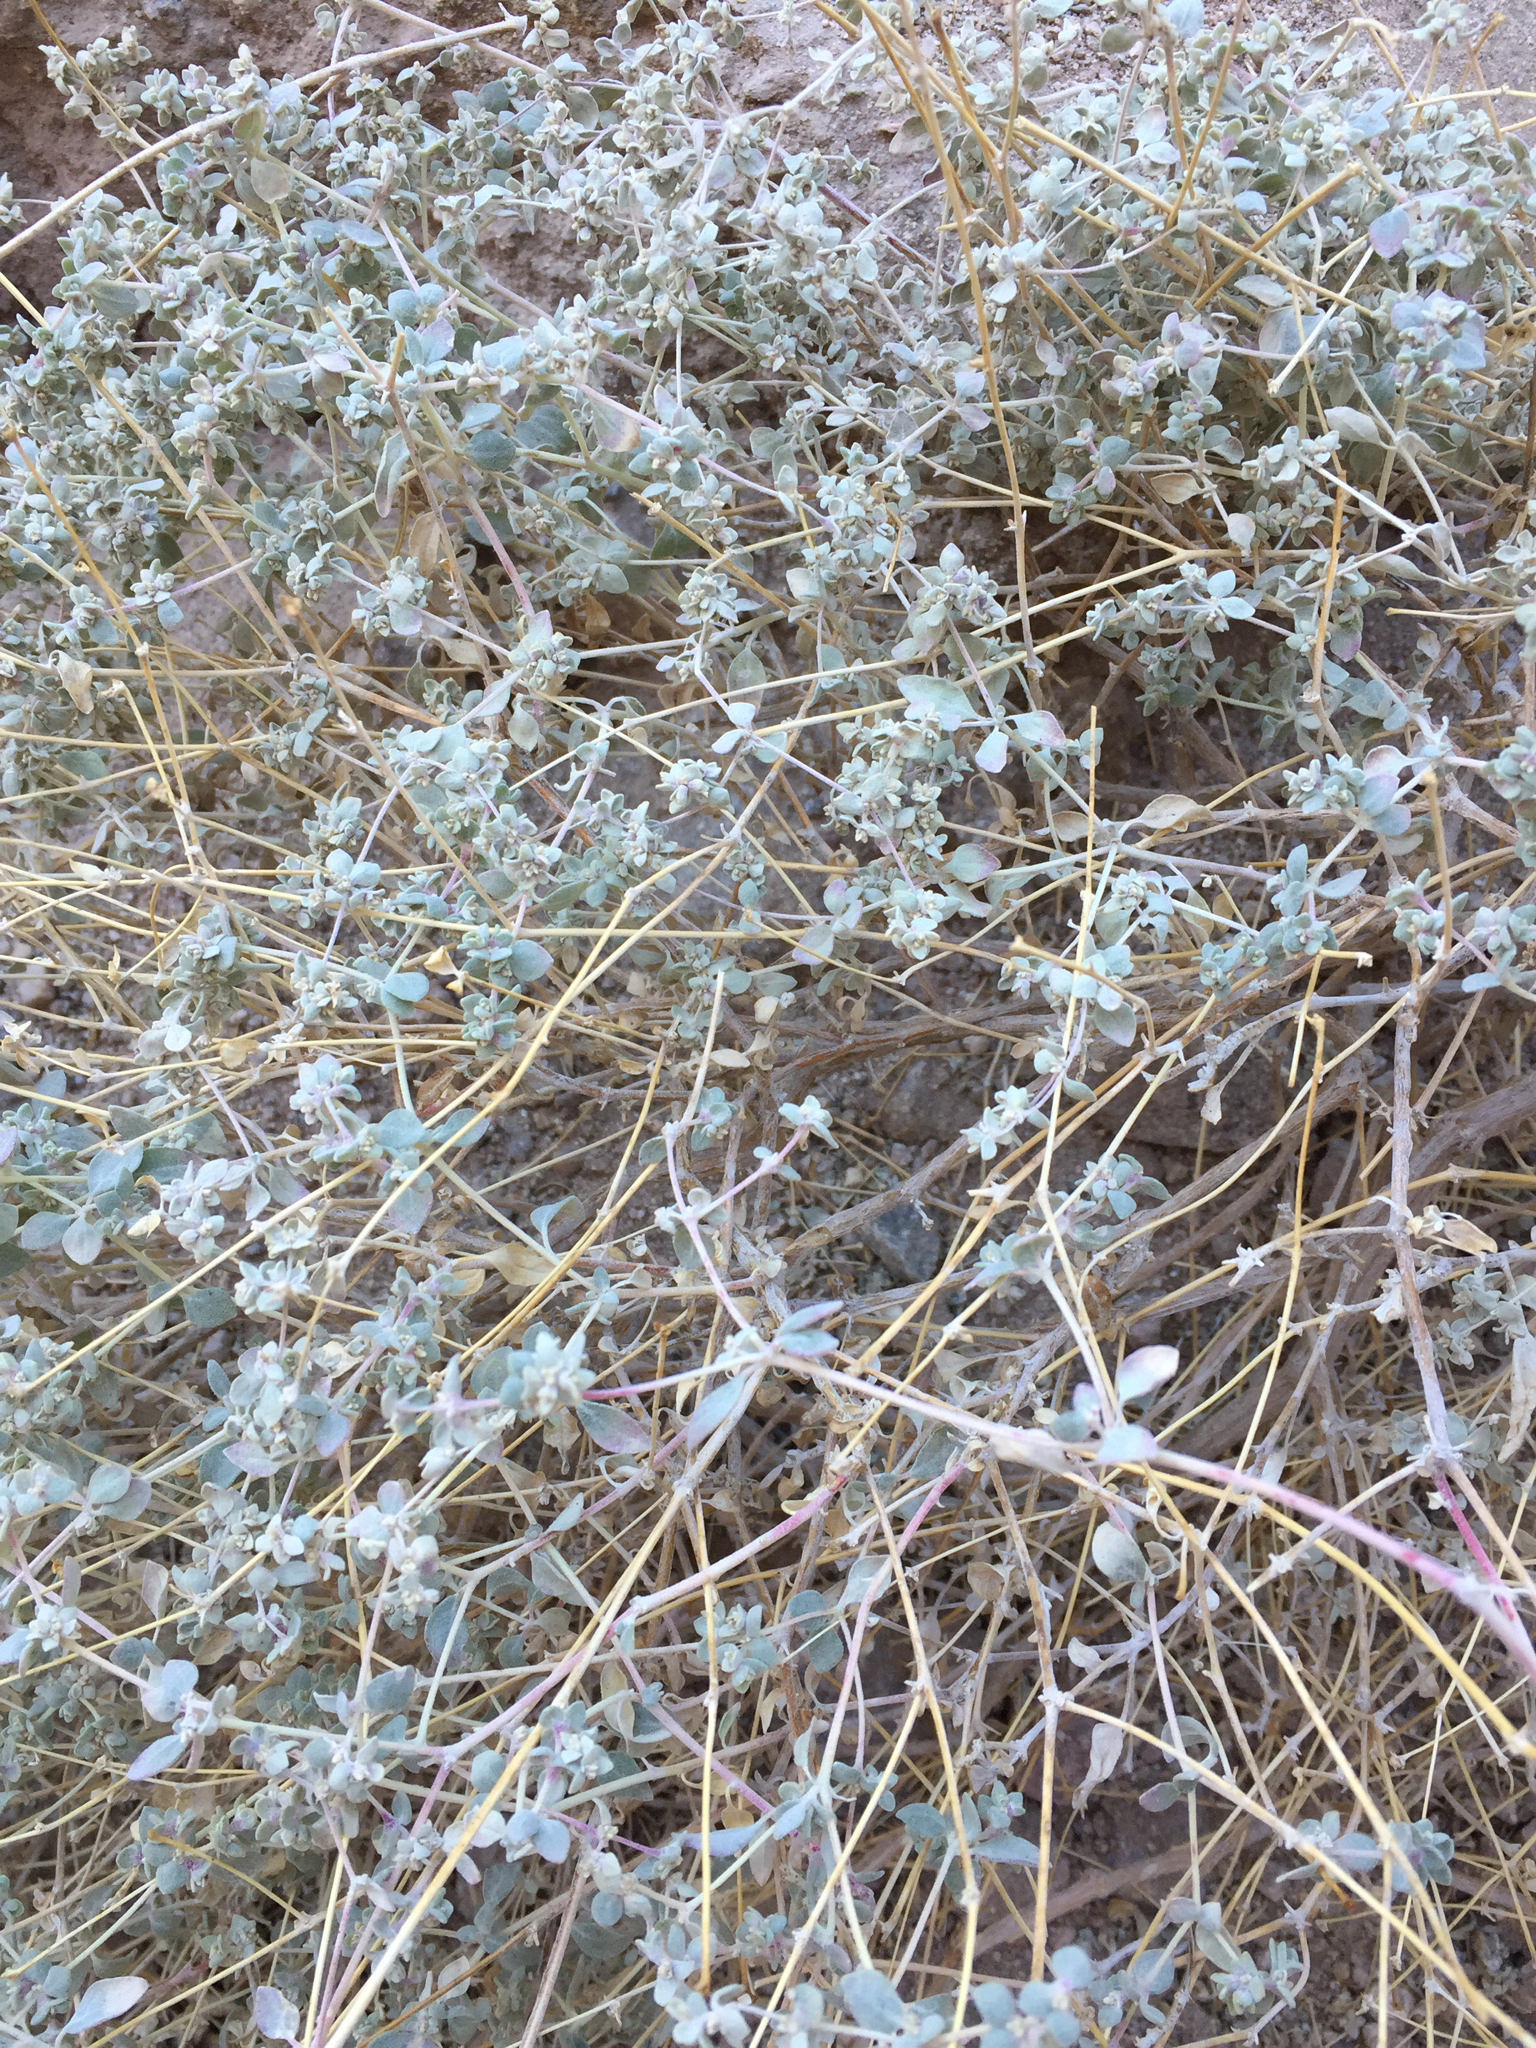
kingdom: Plantae
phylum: Tracheophyta
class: Magnoliopsida
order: Caryophyllales
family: Amaranthaceae
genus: Tidestromia
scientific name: Tidestromia suffruticosa
